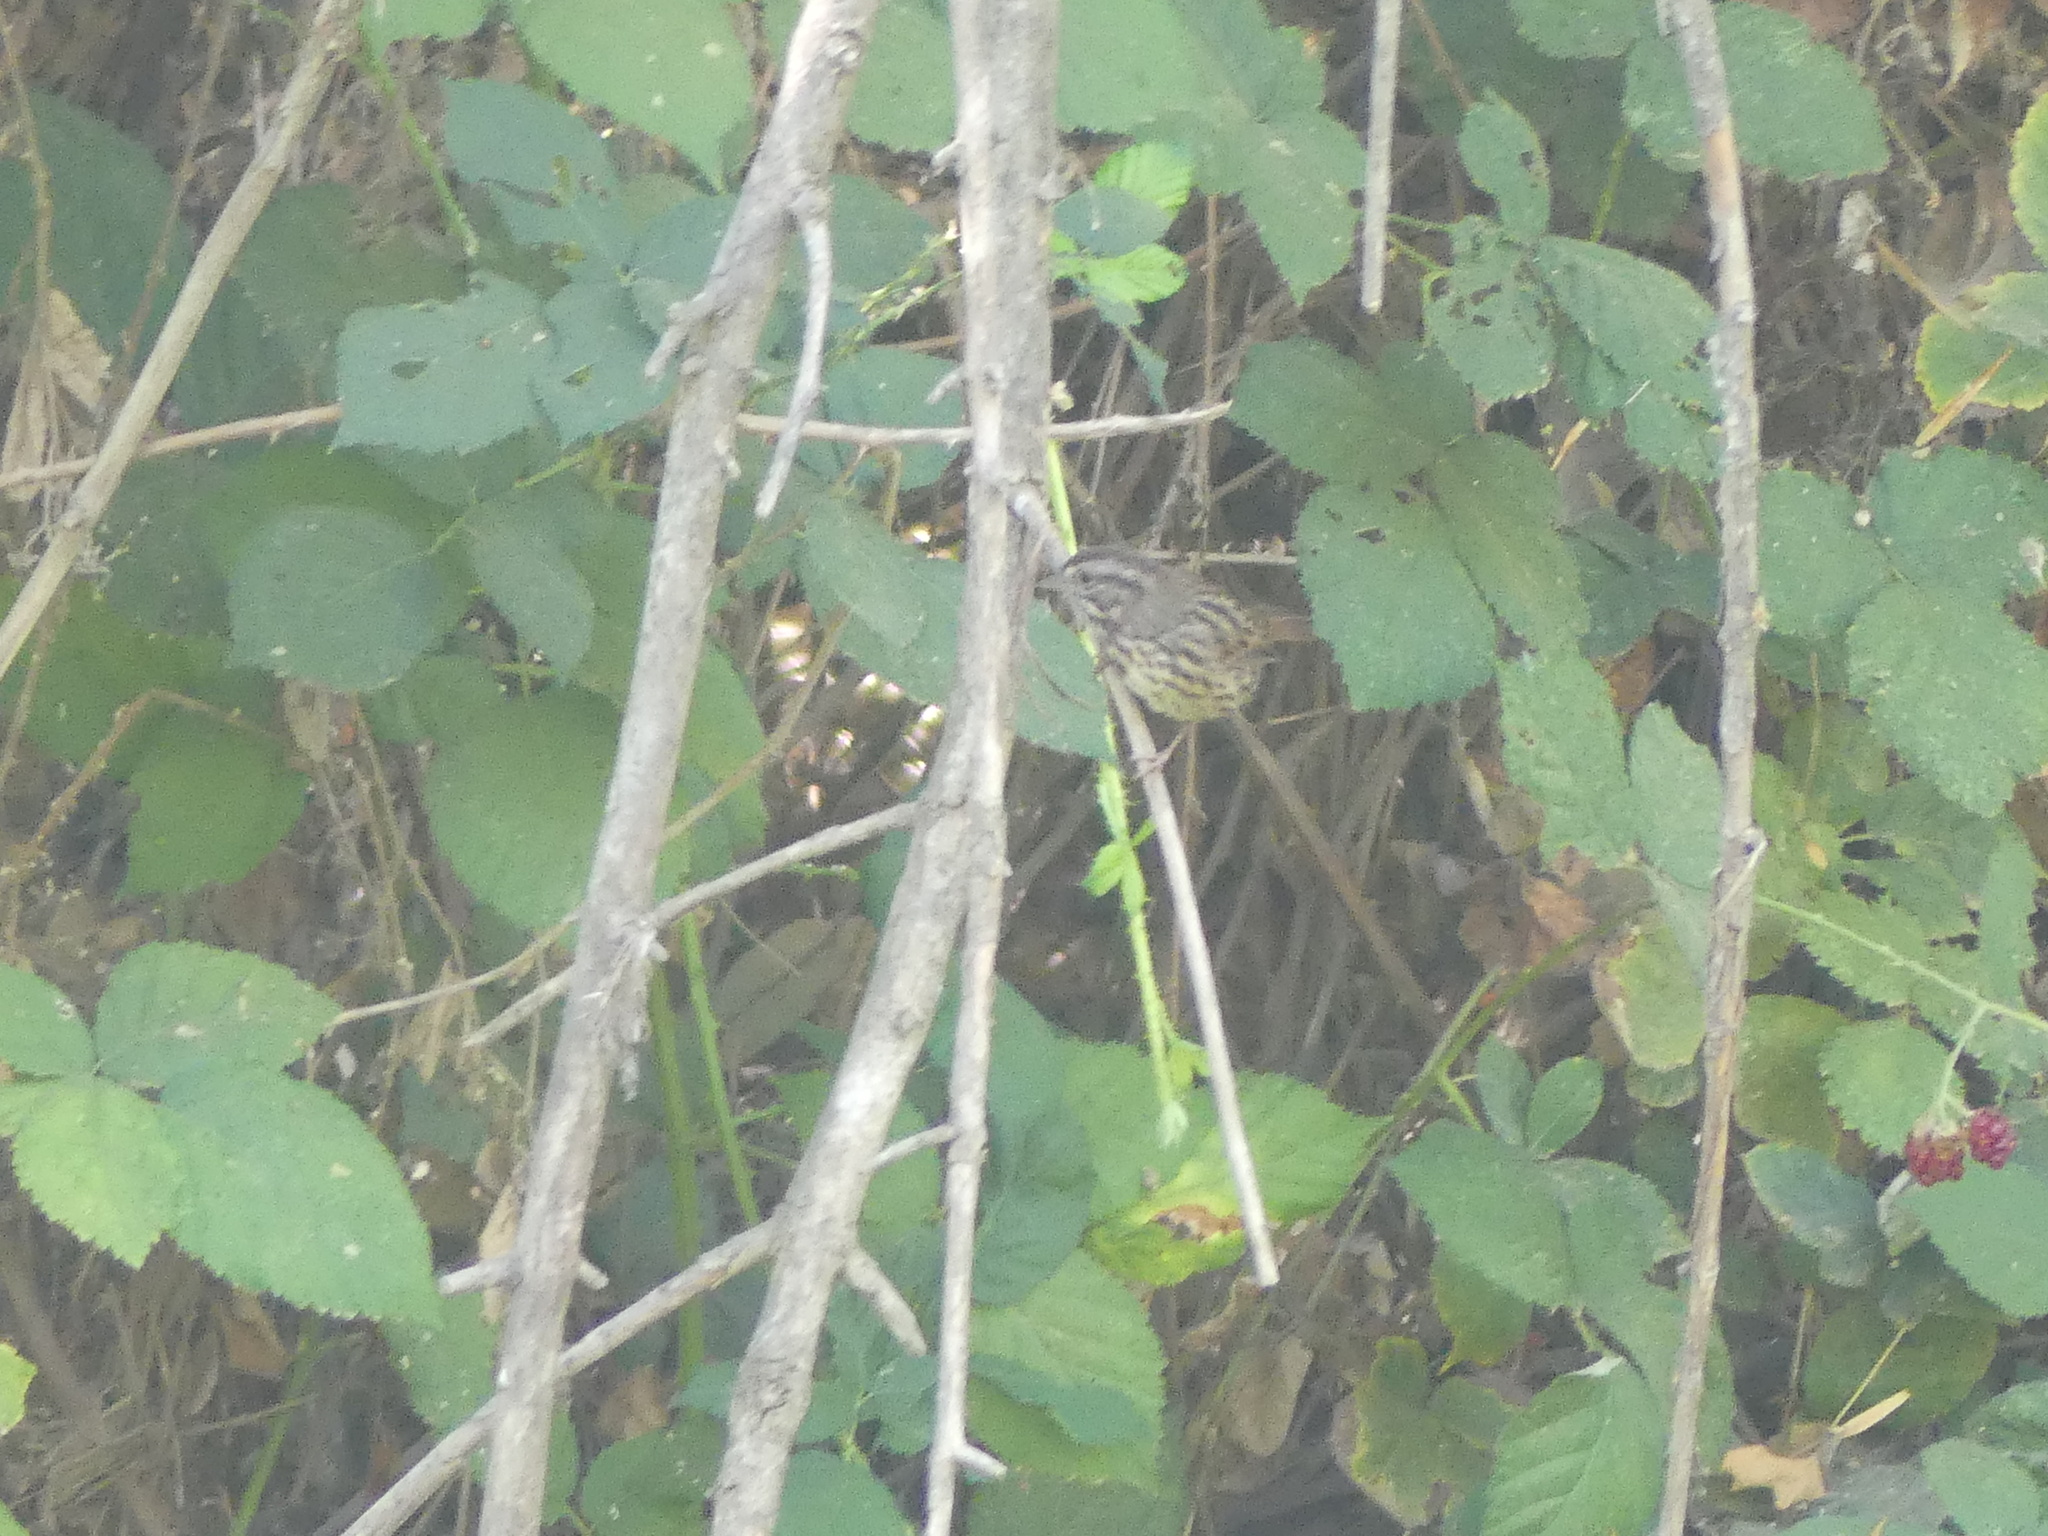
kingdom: Animalia
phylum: Chordata
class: Aves
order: Passeriformes
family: Passerellidae
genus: Melospiza
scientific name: Melospiza melodia
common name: Song sparrow
